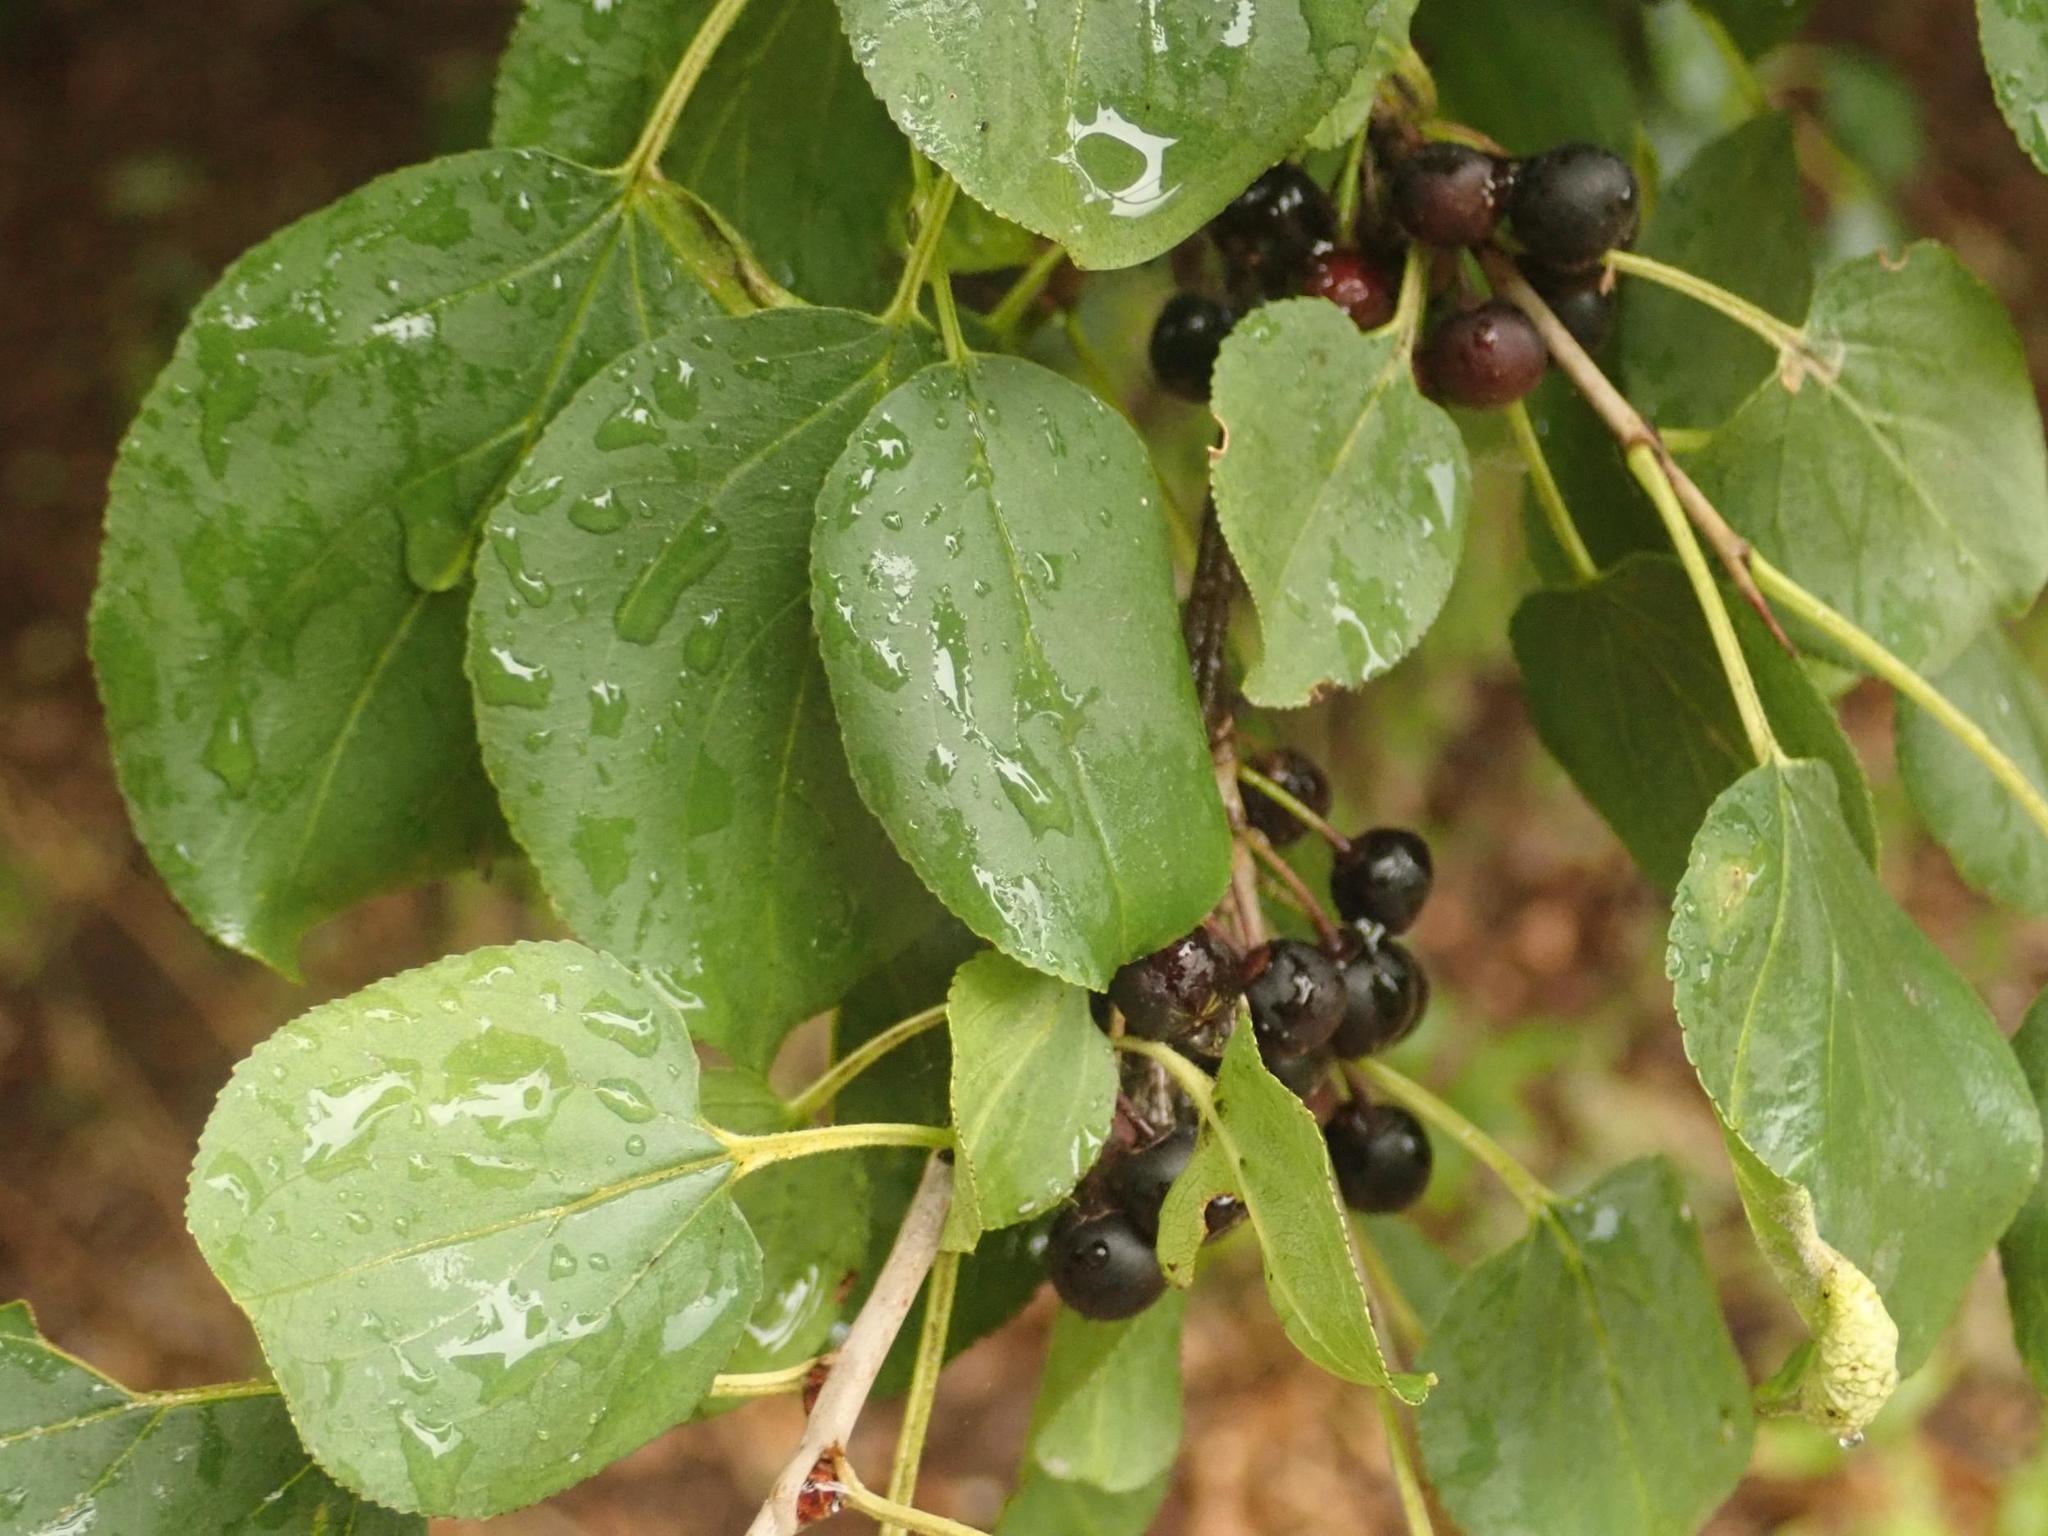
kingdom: Plantae
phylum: Tracheophyta
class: Magnoliopsida
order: Rosales
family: Rhamnaceae
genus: Rhamnus
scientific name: Rhamnus cathartica
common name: Common buckthorn
